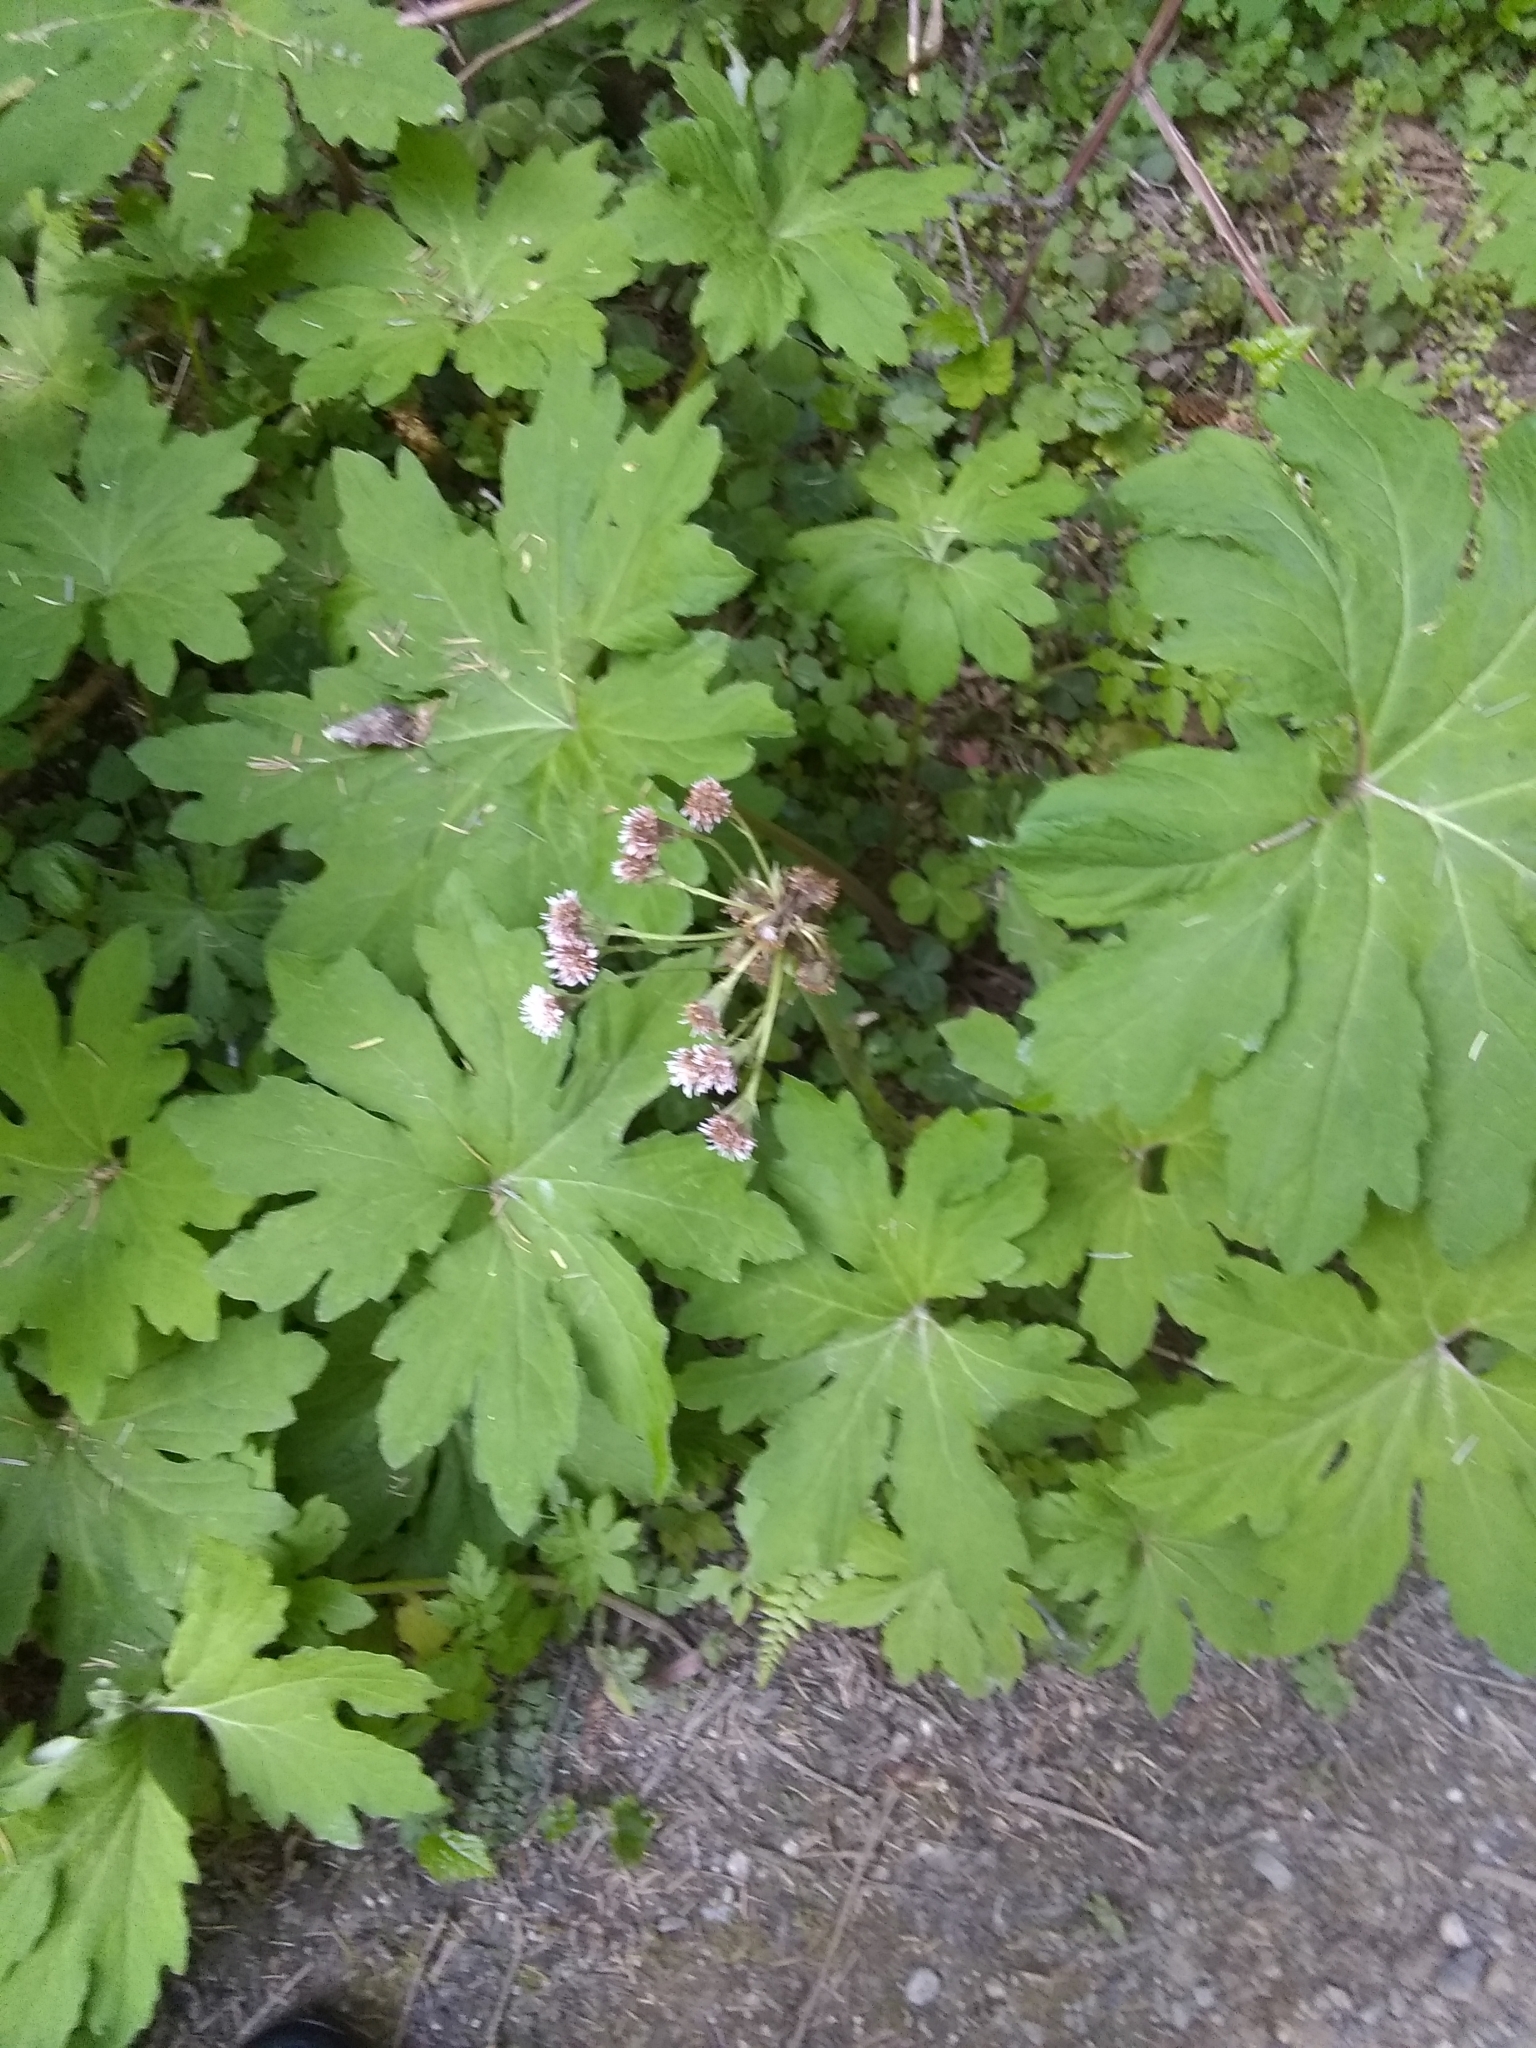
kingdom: Plantae
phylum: Tracheophyta
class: Magnoliopsida
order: Asterales
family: Asteraceae
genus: Petasites
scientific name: Petasites frigidus
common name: Arctic butterbur
